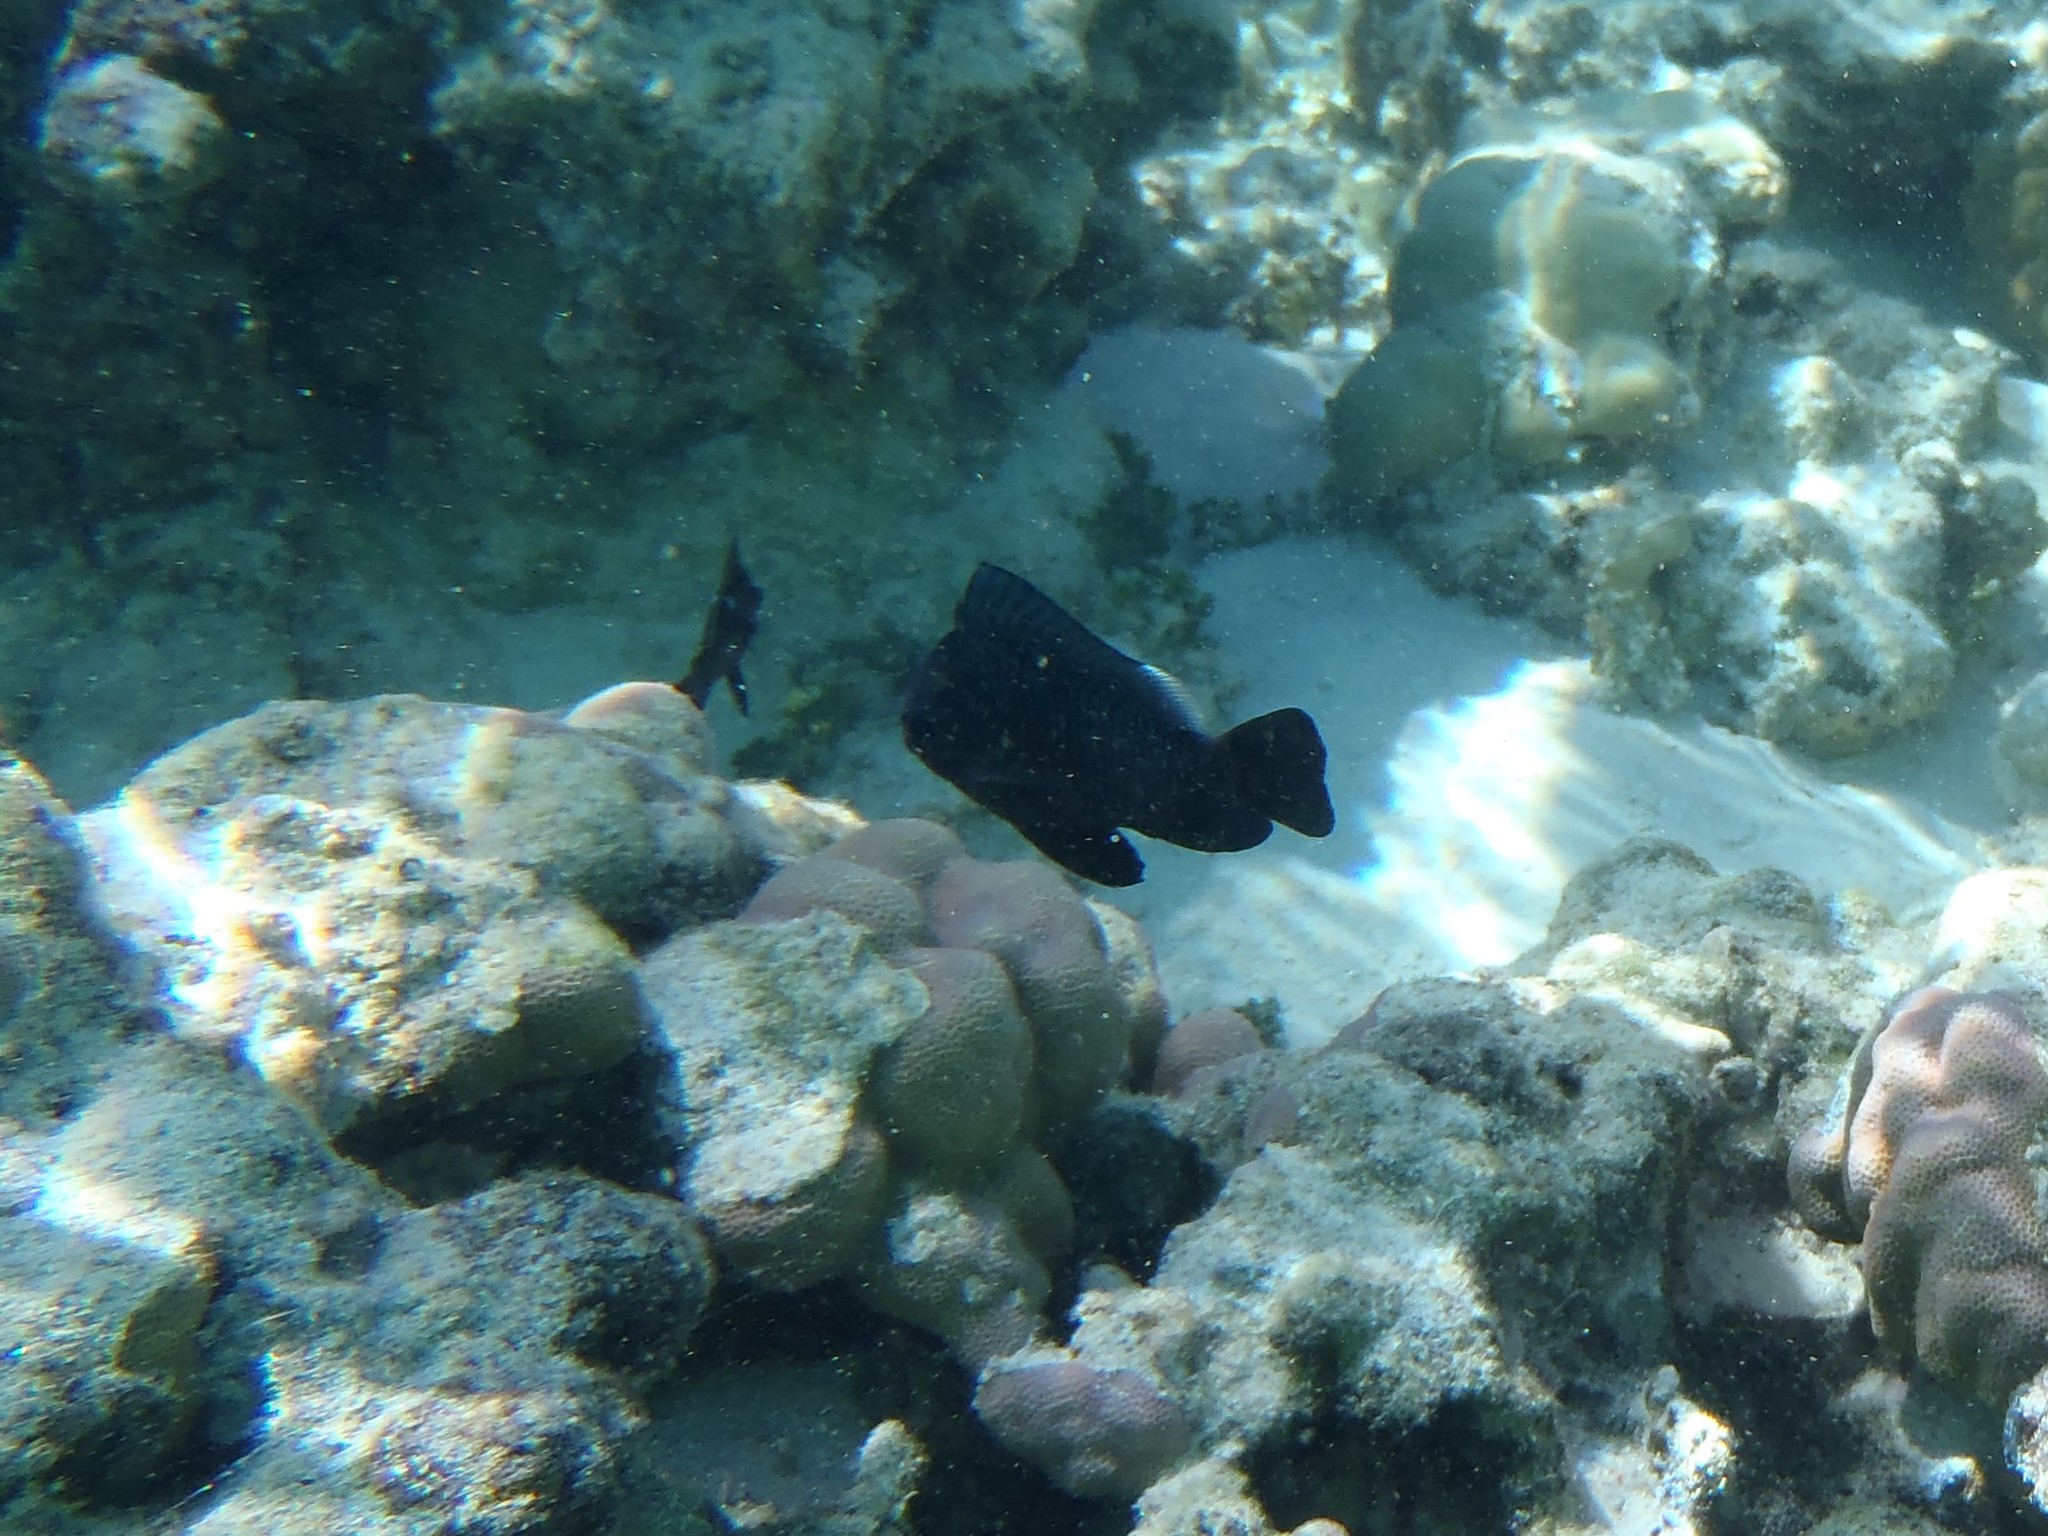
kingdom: Animalia
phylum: Chordata
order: Perciformes
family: Pomacentridae
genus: Dascyllus
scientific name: Dascyllus trimaculatus
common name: Threespot dascyllus
